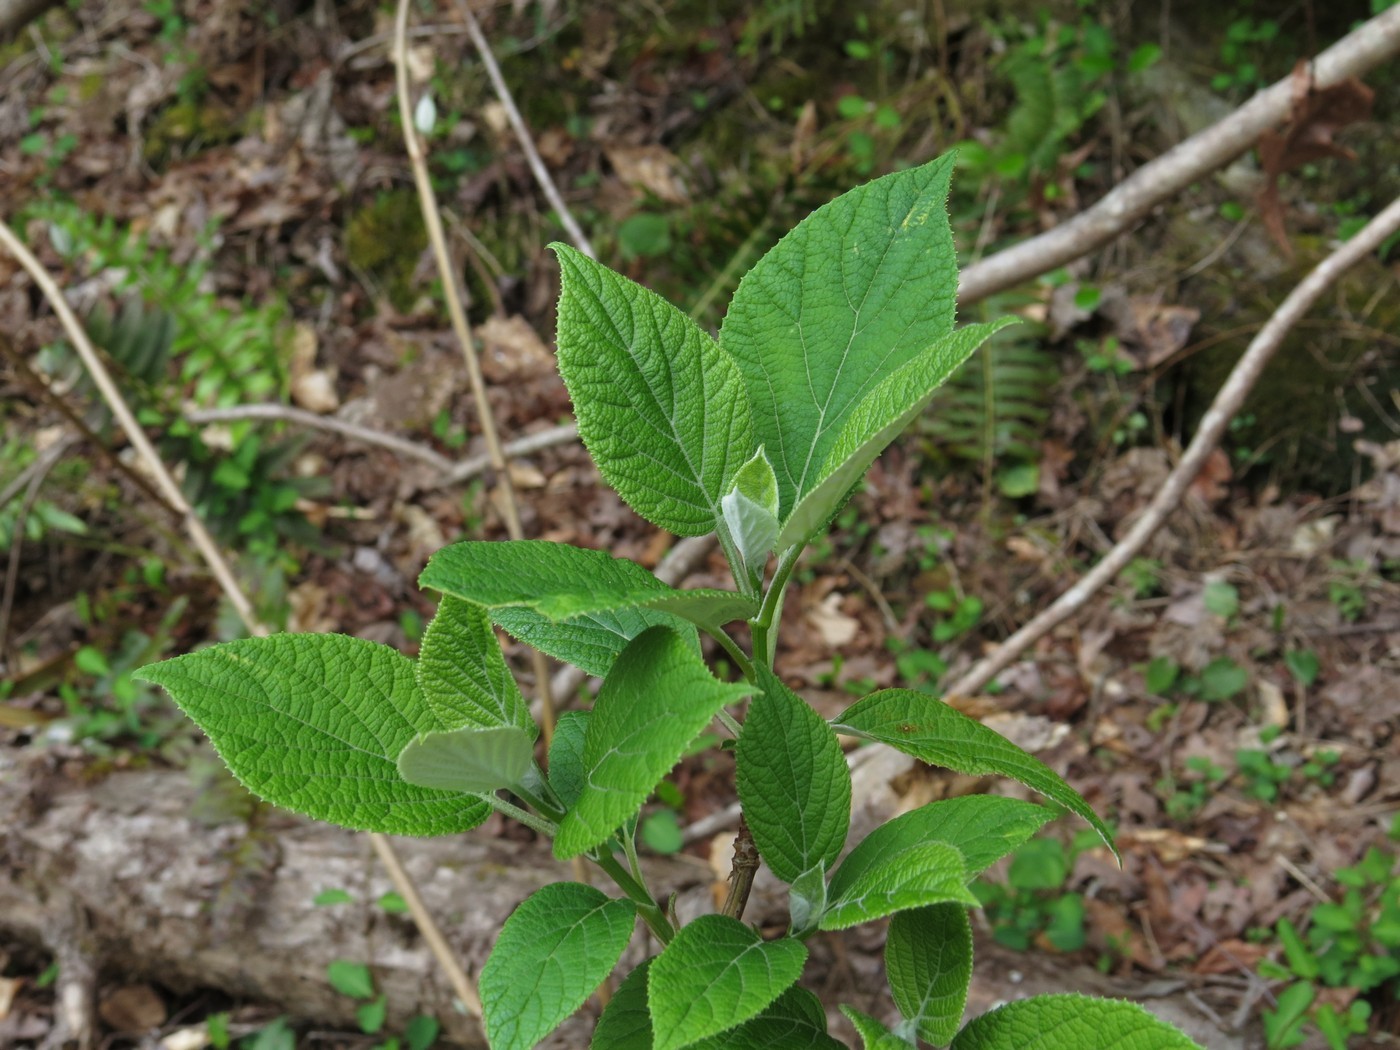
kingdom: Plantae
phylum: Tracheophyta
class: Magnoliopsida
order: Cornales
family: Hydrangeaceae
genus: Hydrangea
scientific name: Hydrangea radiata
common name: Silverleaf hydrangea
